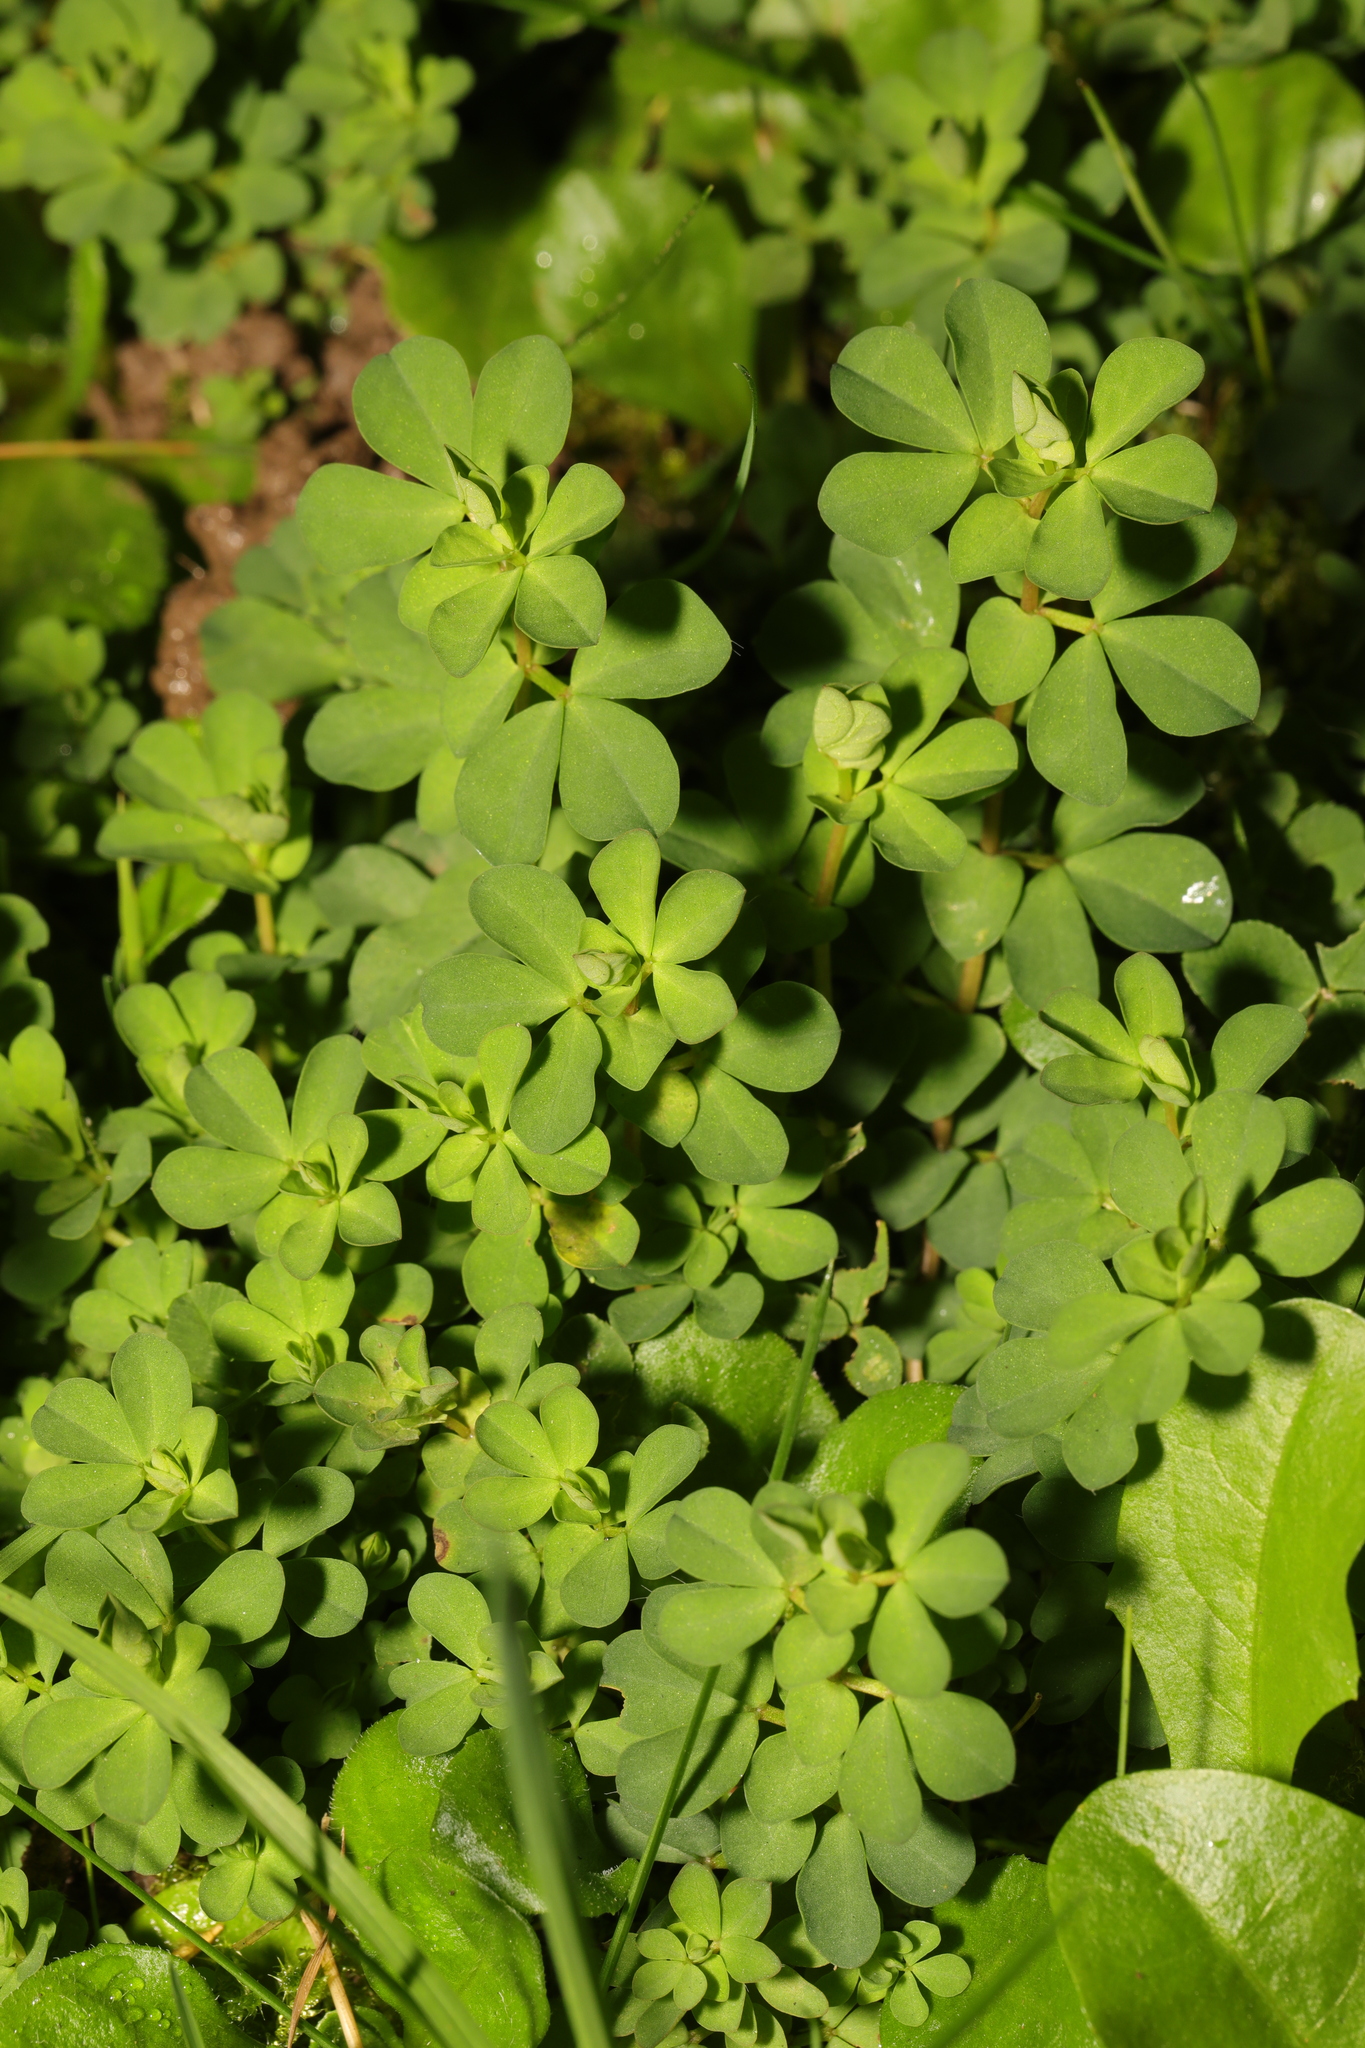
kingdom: Plantae
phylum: Tracheophyta
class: Magnoliopsida
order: Fabales
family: Fabaceae
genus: Lotus
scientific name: Lotus corniculatus
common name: Common bird's-foot-trefoil
